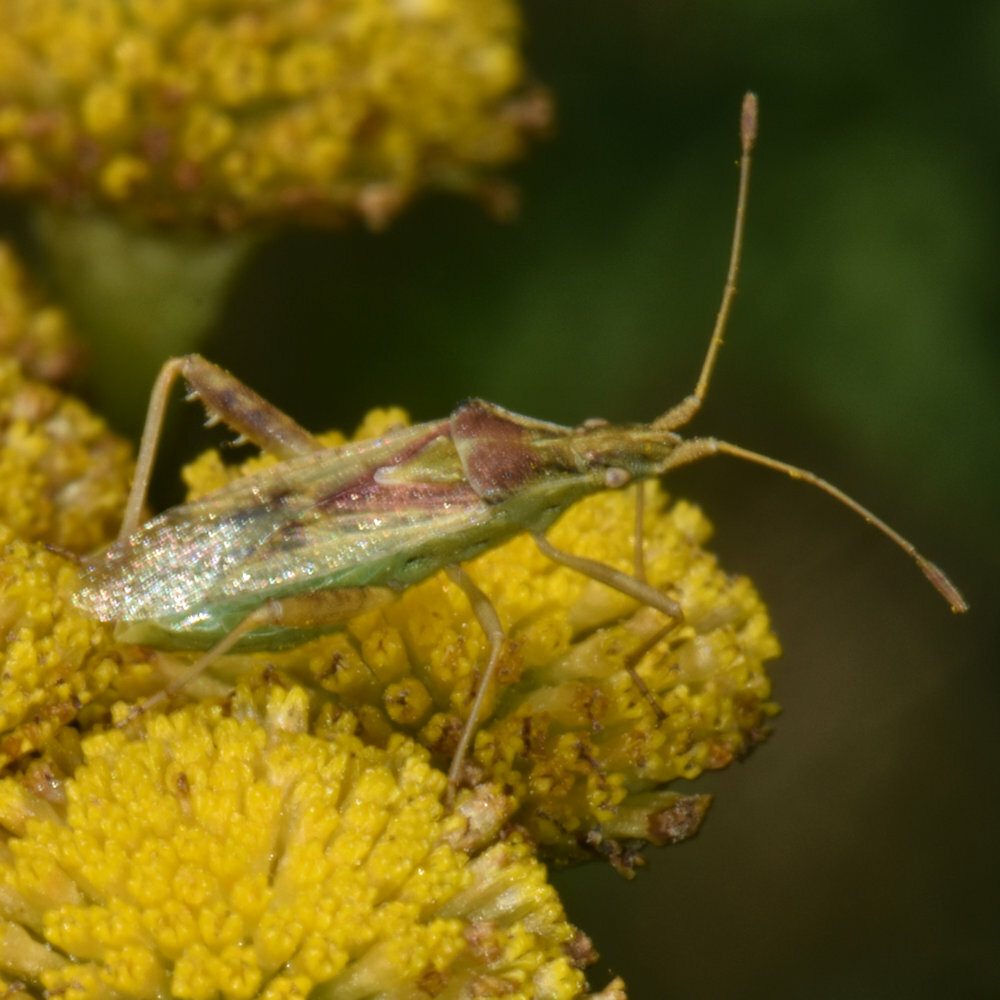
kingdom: Animalia
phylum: Arthropoda
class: Insecta
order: Hemiptera
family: Rhopalidae
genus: Harmostes
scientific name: Harmostes reflexulus
